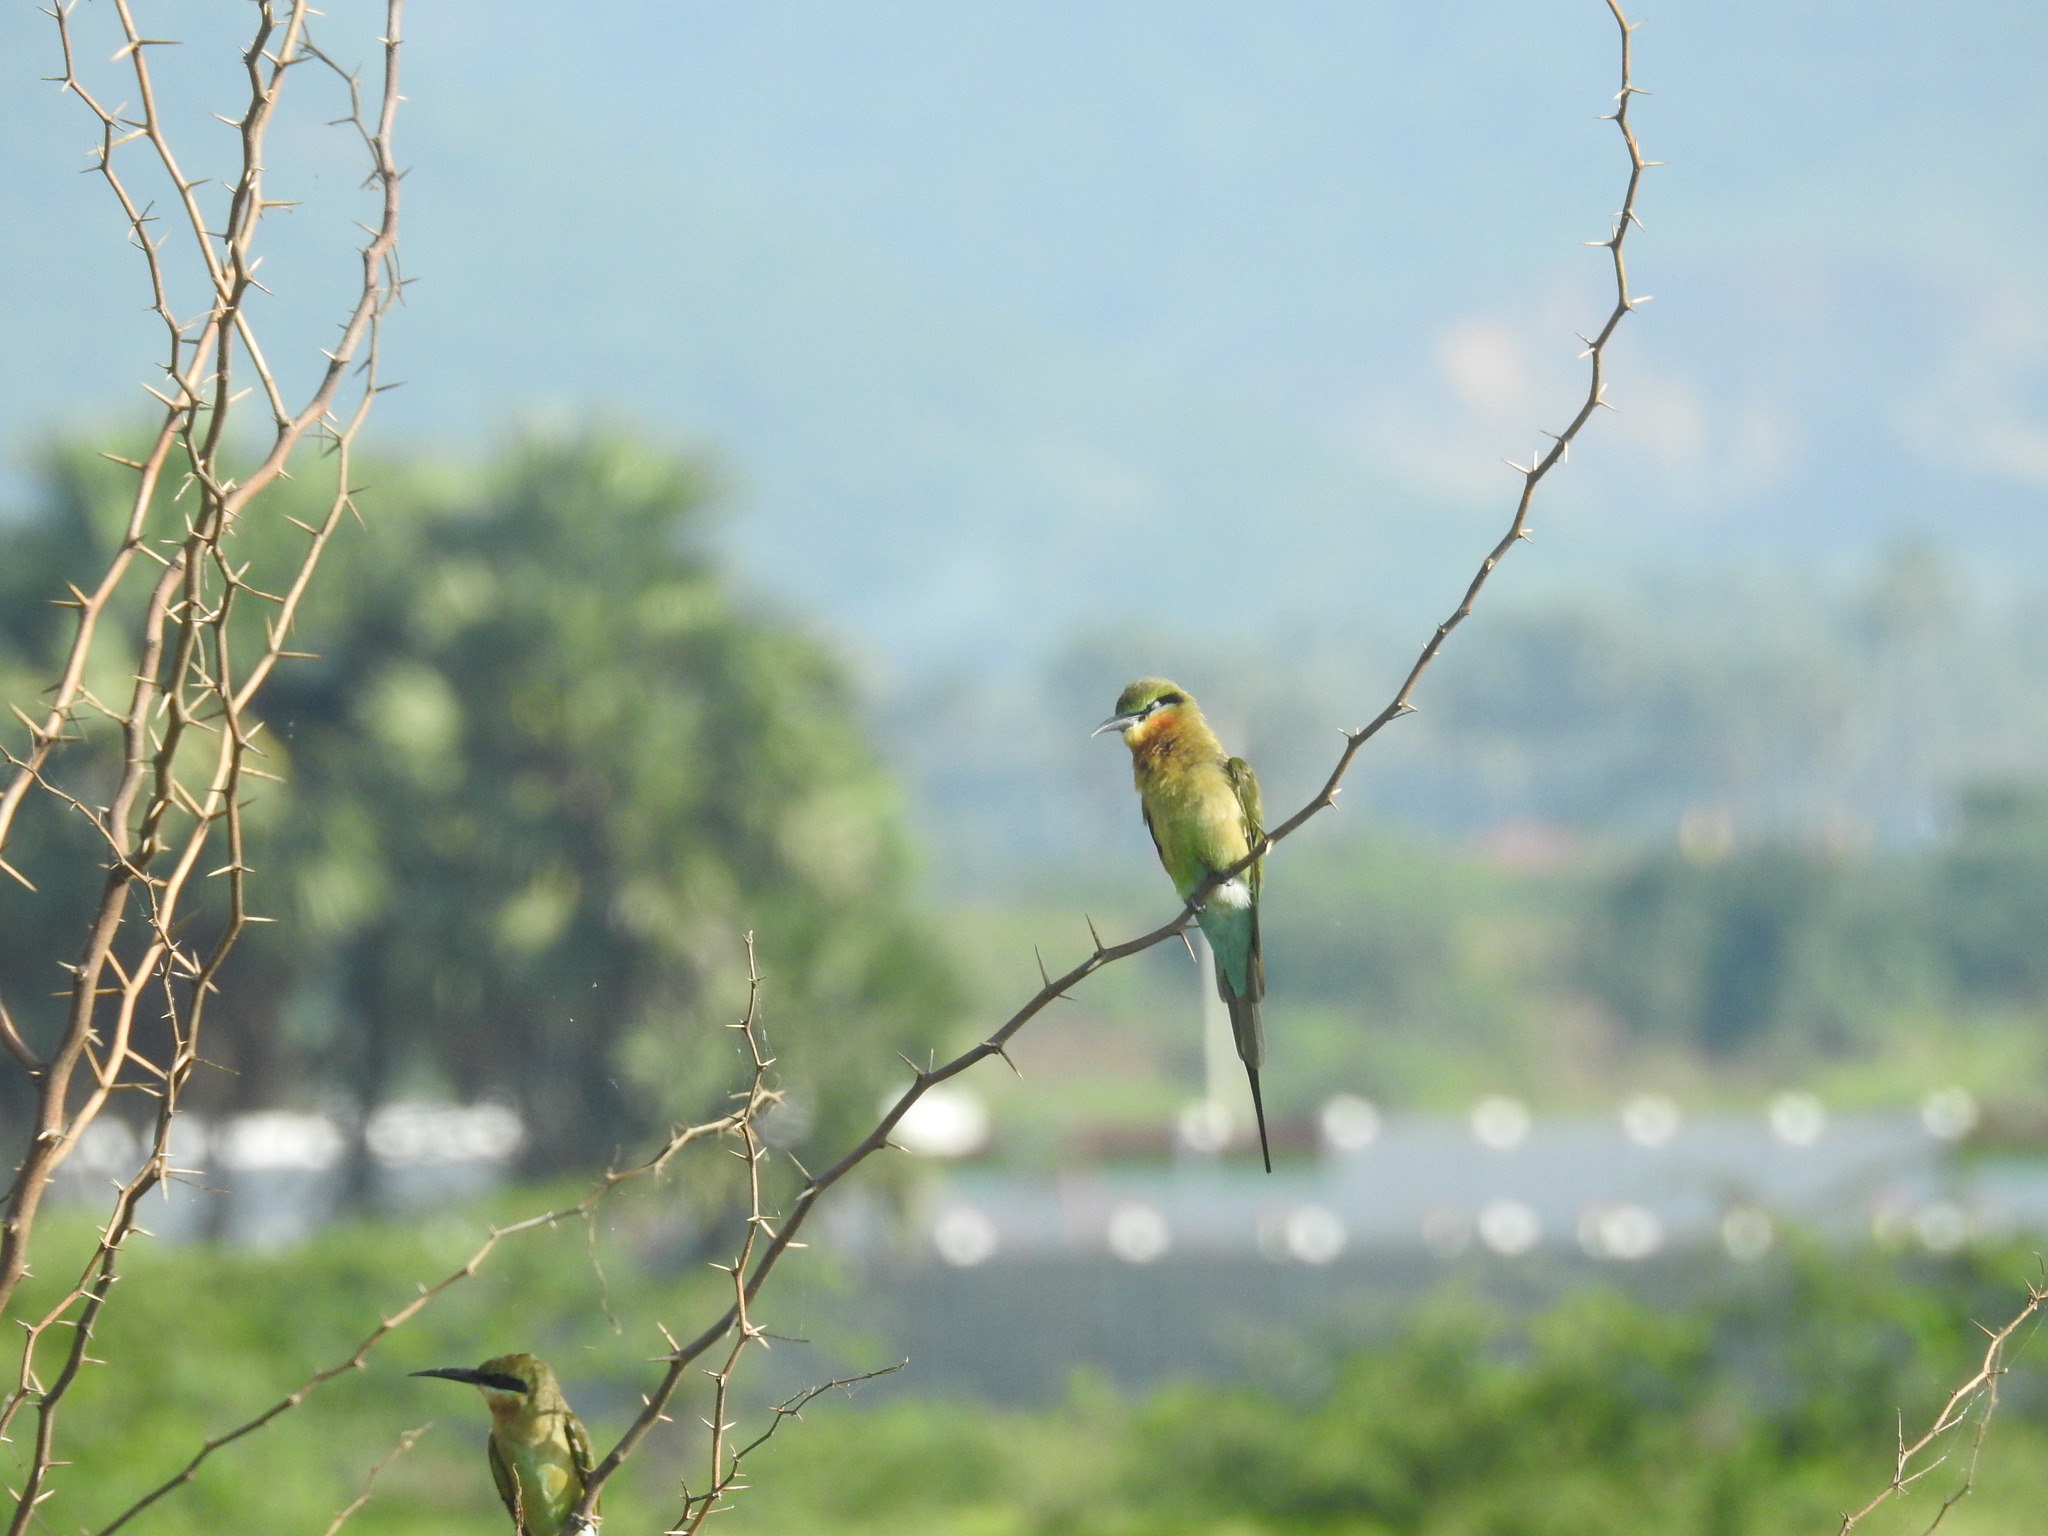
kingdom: Animalia
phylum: Chordata
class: Aves
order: Coraciiformes
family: Meropidae
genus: Merops
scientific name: Merops philippinus
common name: Blue-tailed bee-eater
